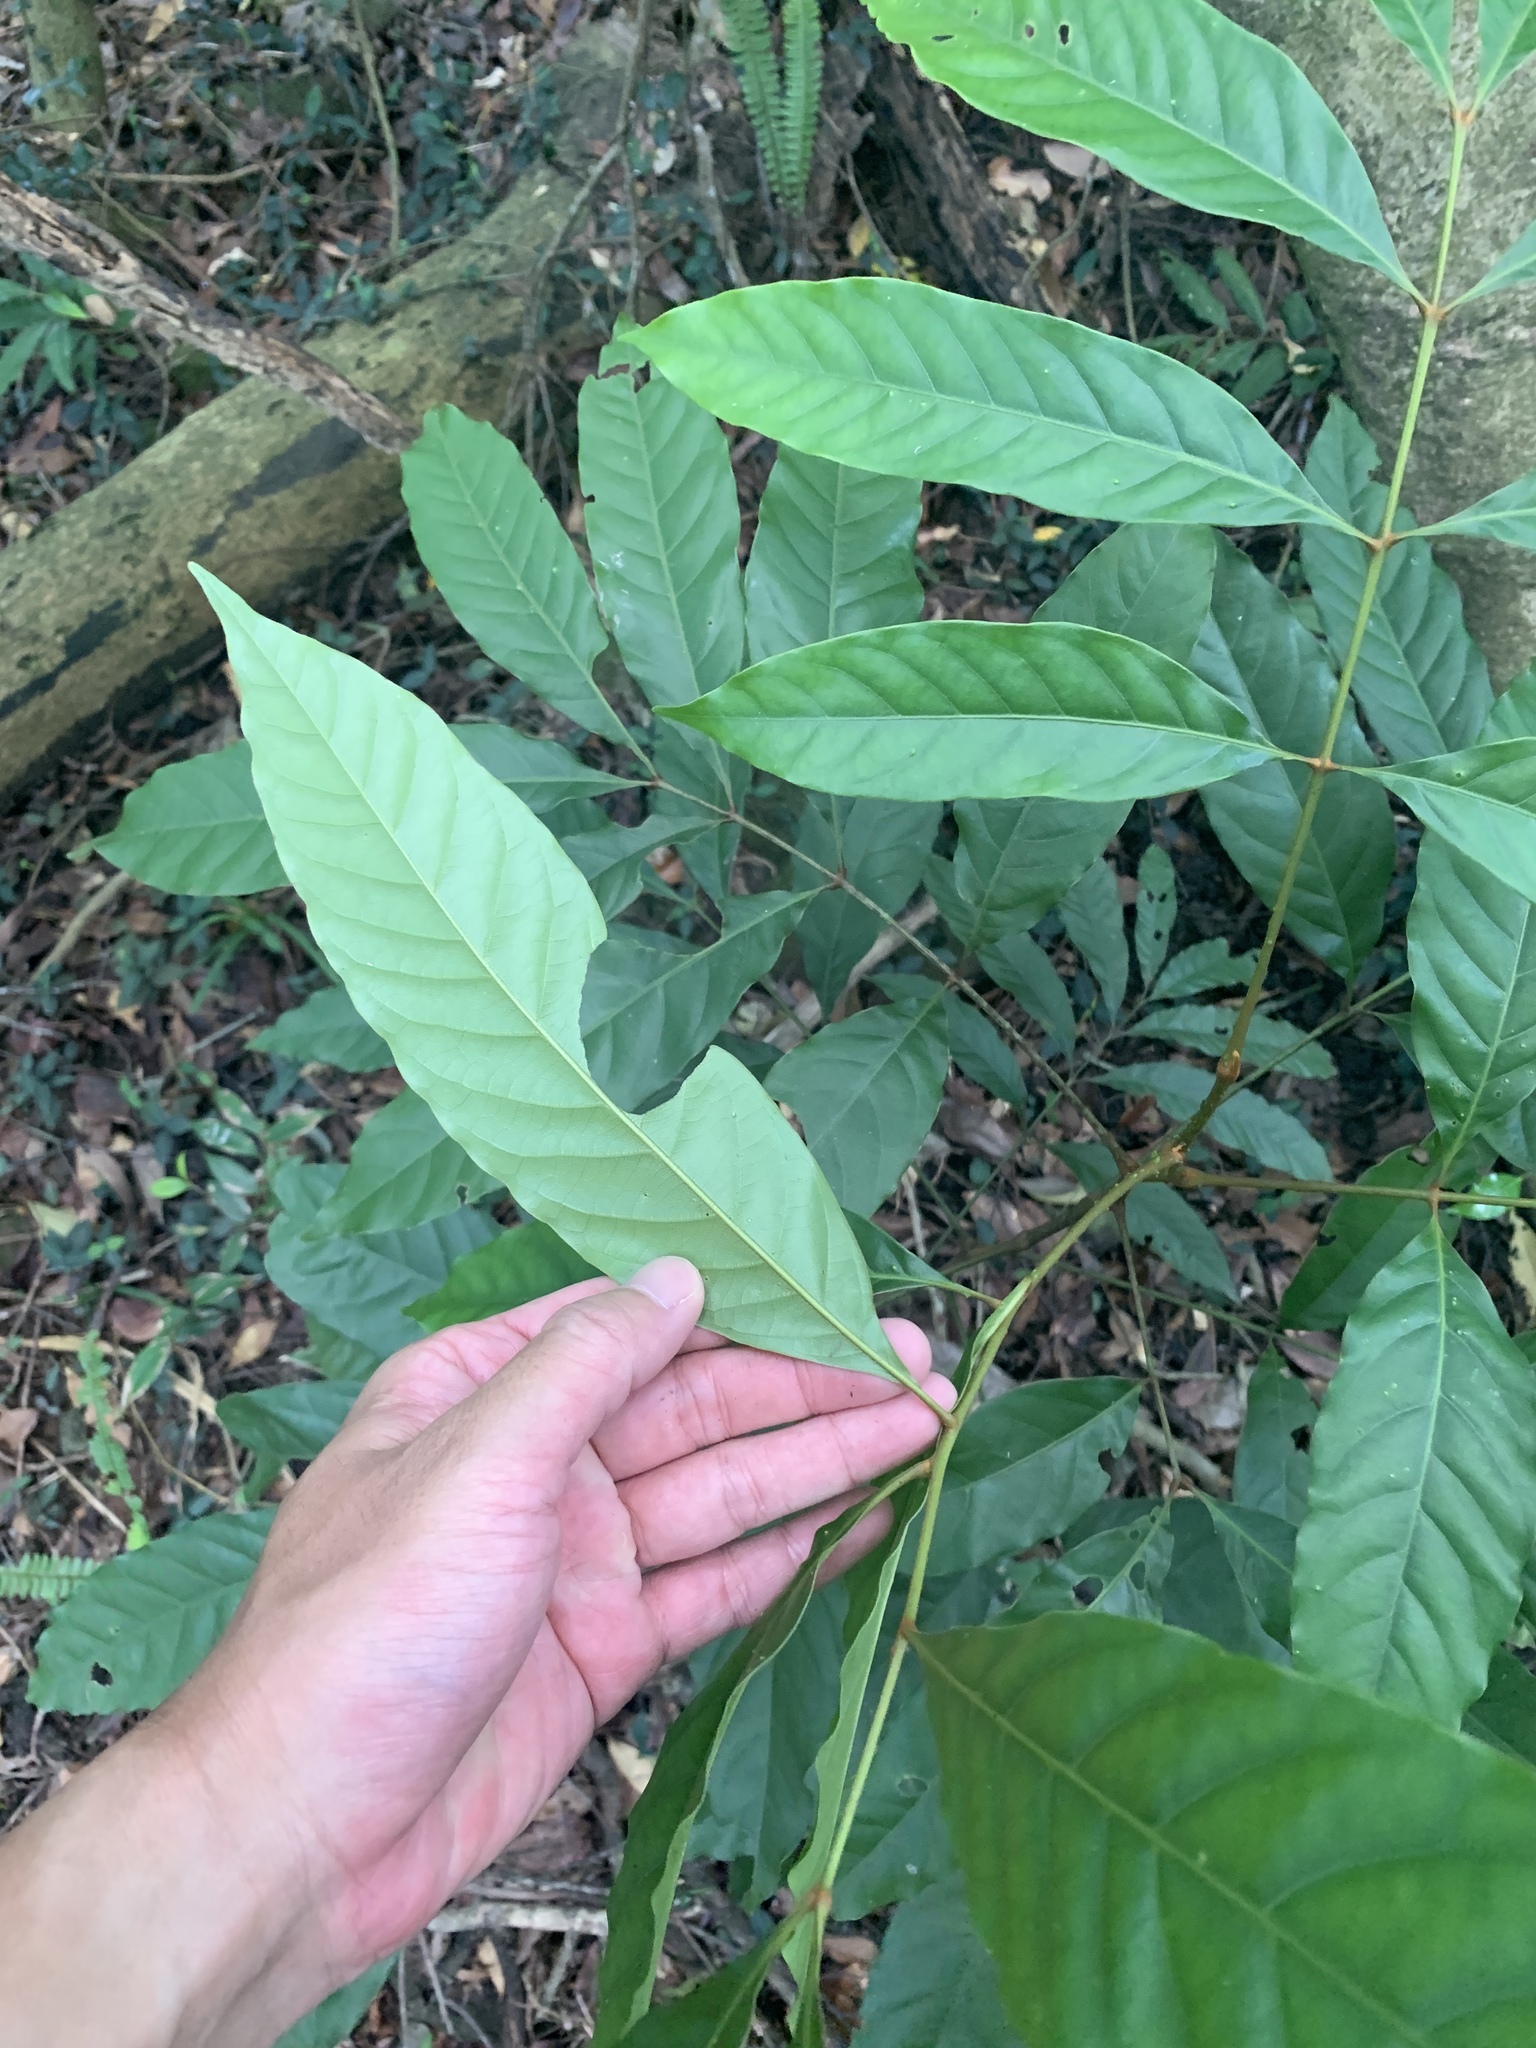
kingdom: Plantae
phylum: Tracheophyta
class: Magnoliopsida
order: Fagales
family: Juglandaceae
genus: Engelhardia
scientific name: Engelhardia roxburghiana
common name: Golden malay beam
